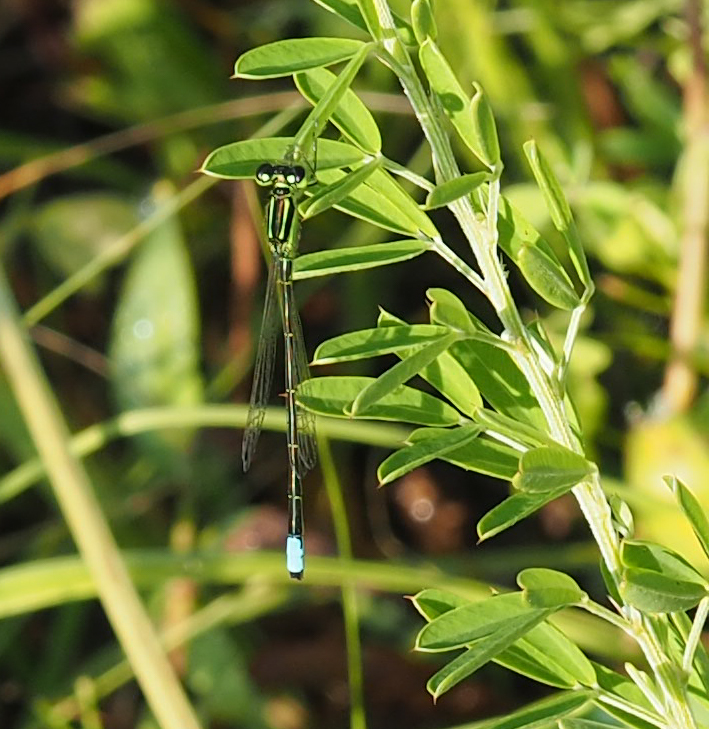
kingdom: Animalia
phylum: Arthropoda
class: Insecta
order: Odonata
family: Coenagrionidae
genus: Ischnura
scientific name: Ischnura verticalis
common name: Eastern forktail
